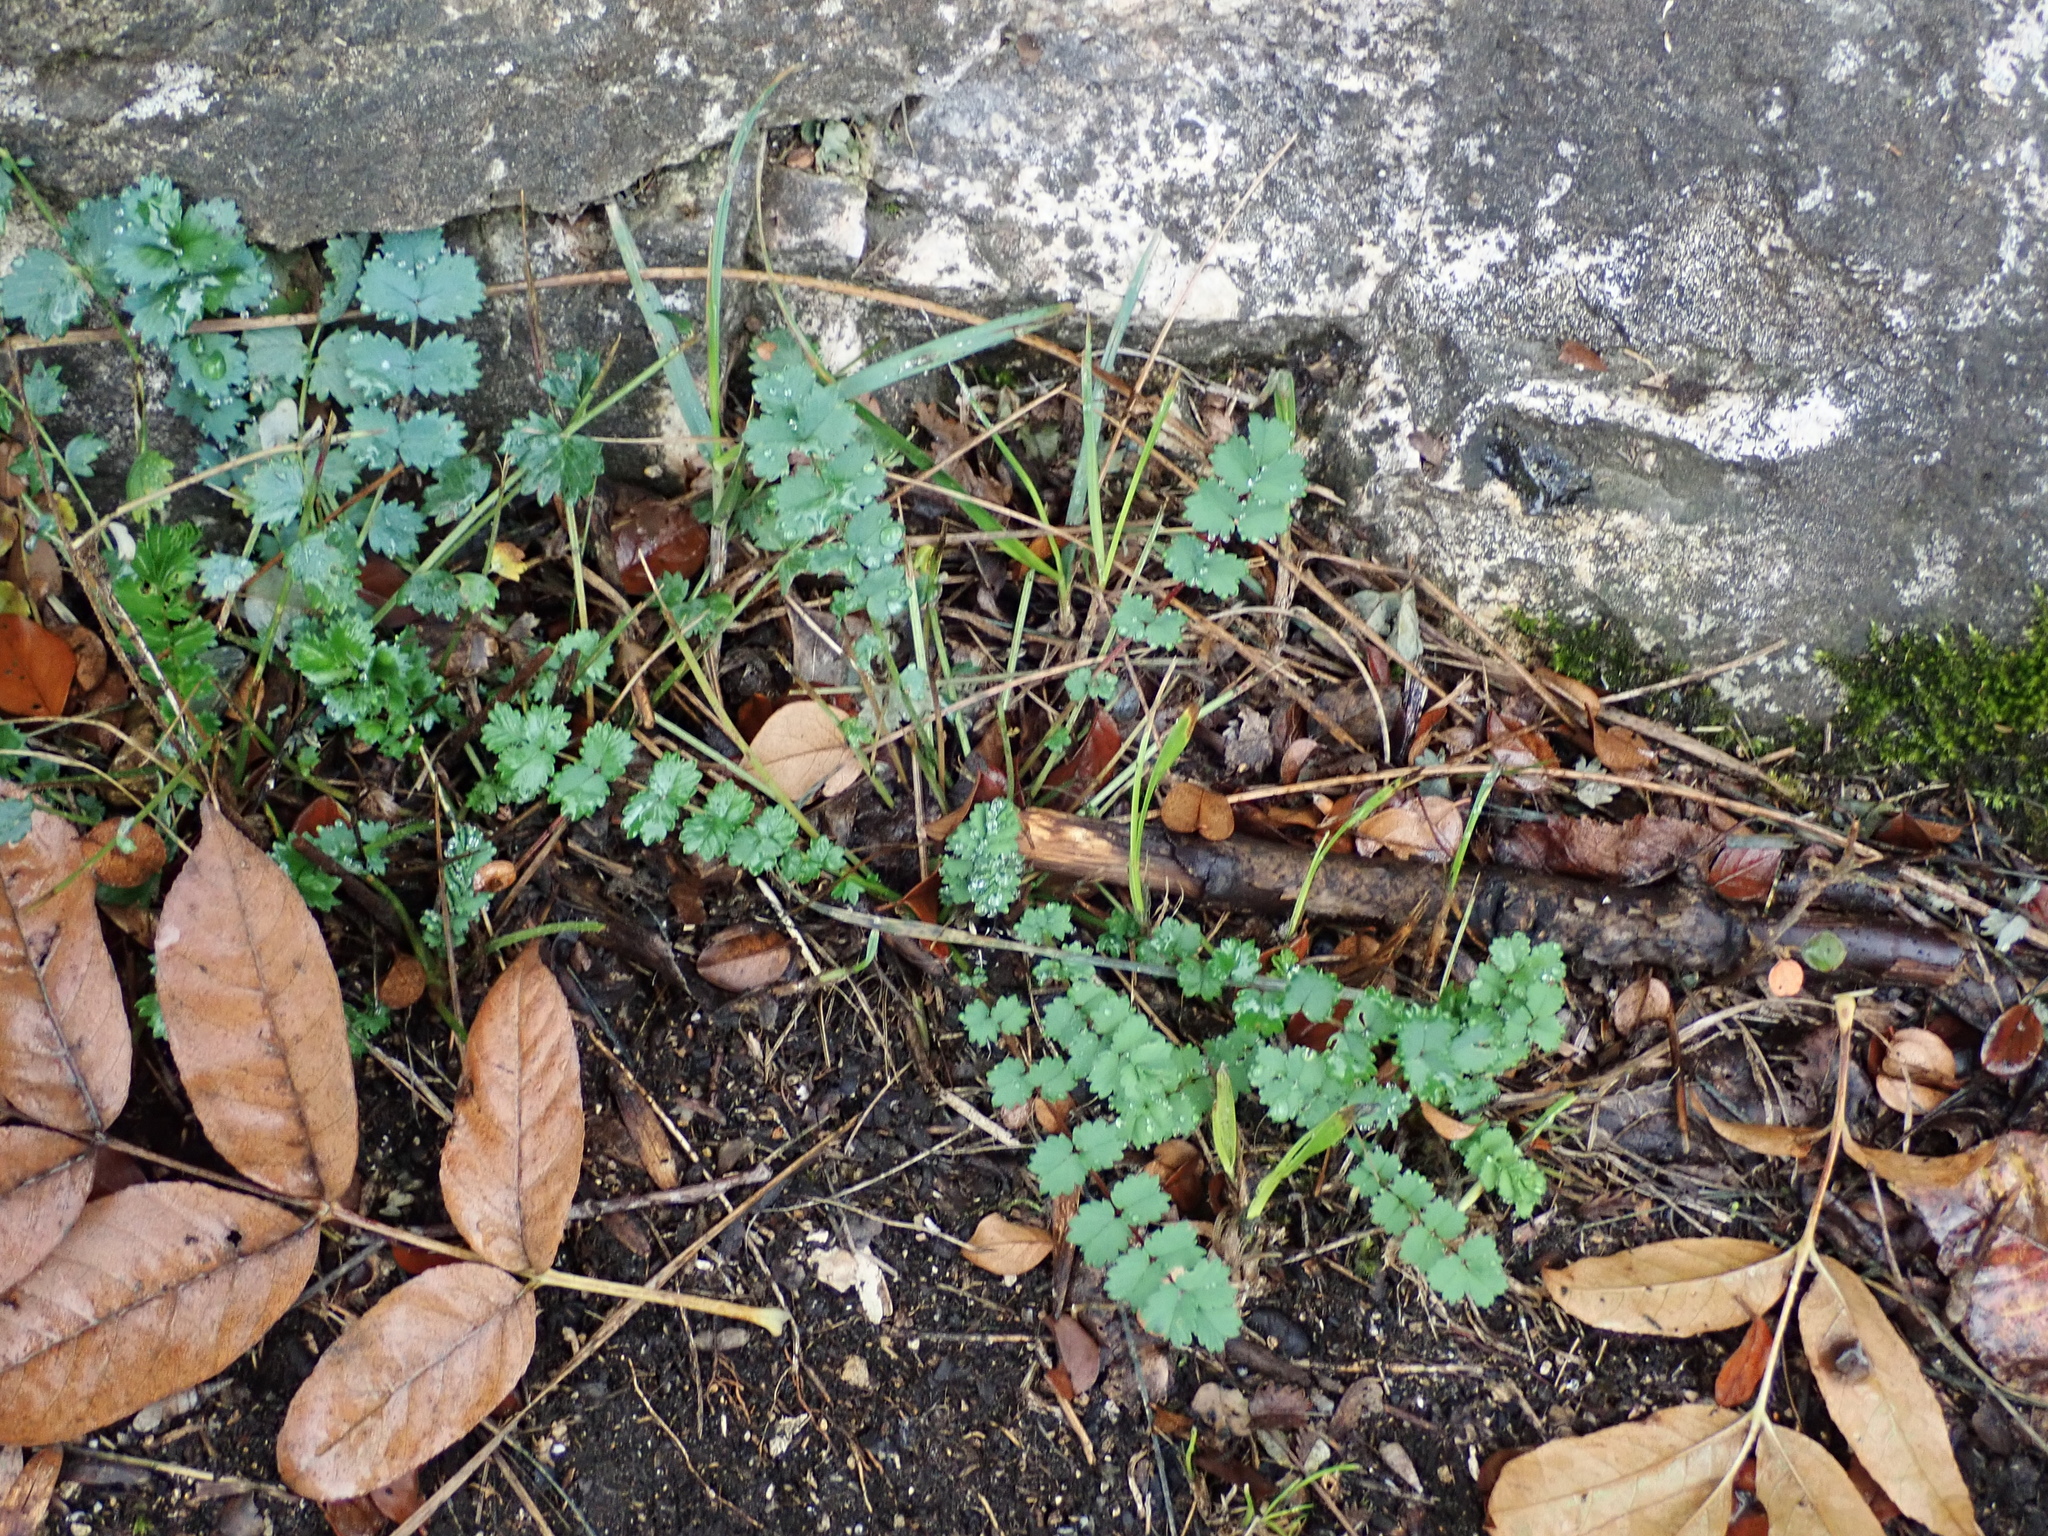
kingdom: Plantae
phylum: Tracheophyta
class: Magnoliopsida
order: Rosales
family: Rosaceae
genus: Poterium
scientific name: Poterium sanguisorba
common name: Salad burnet
